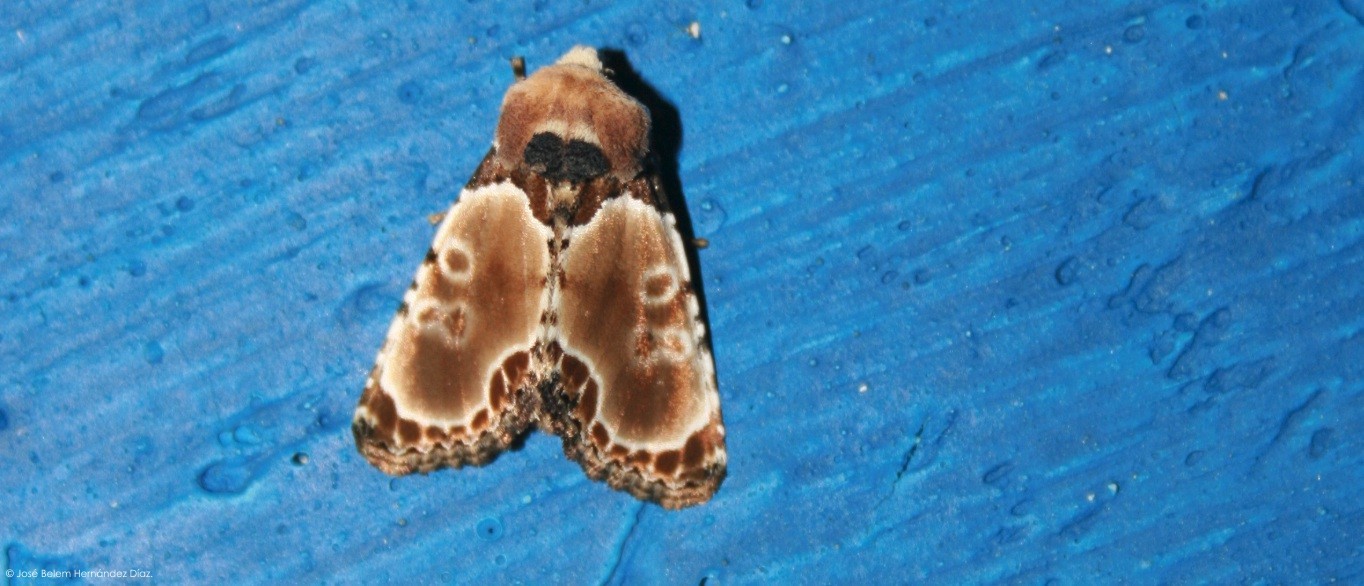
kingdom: Animalia
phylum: Arthropoda
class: Insecta
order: Lepidoptera
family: Noctuidae
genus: Thyatirodes
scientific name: Thyatirodes godalma
